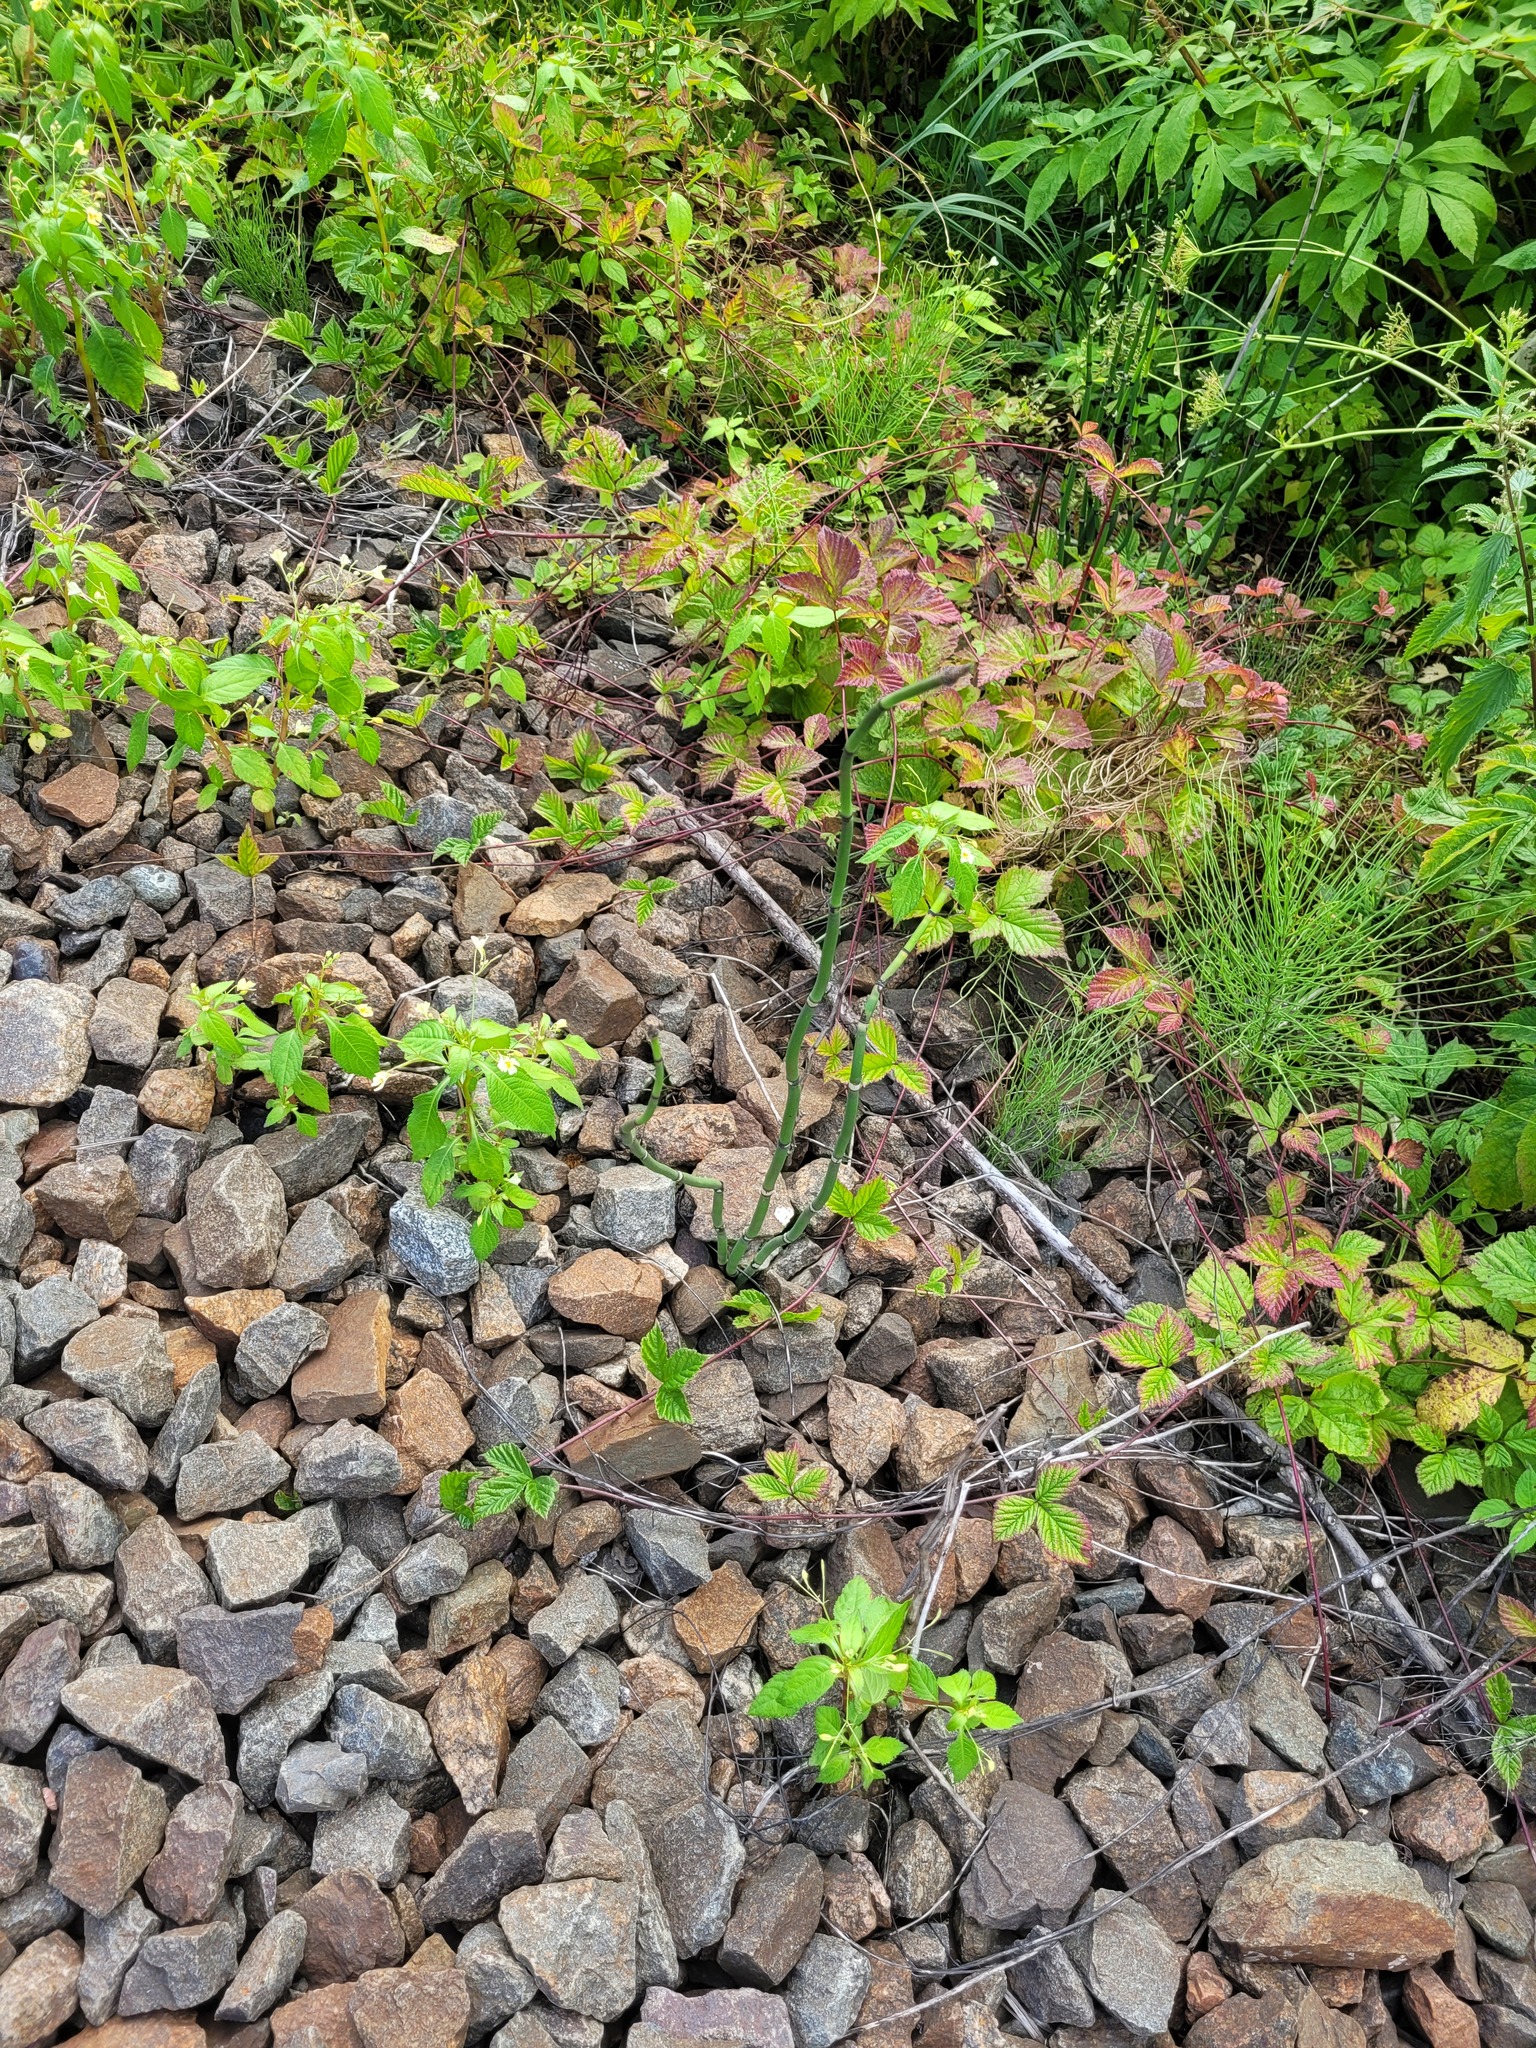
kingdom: Plantae
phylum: Tracheophyta
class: Polypodiopsida
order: Equisetales
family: Equisetaceae
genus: Equisetum
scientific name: Equisetum hyemale
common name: Rough horsetail
